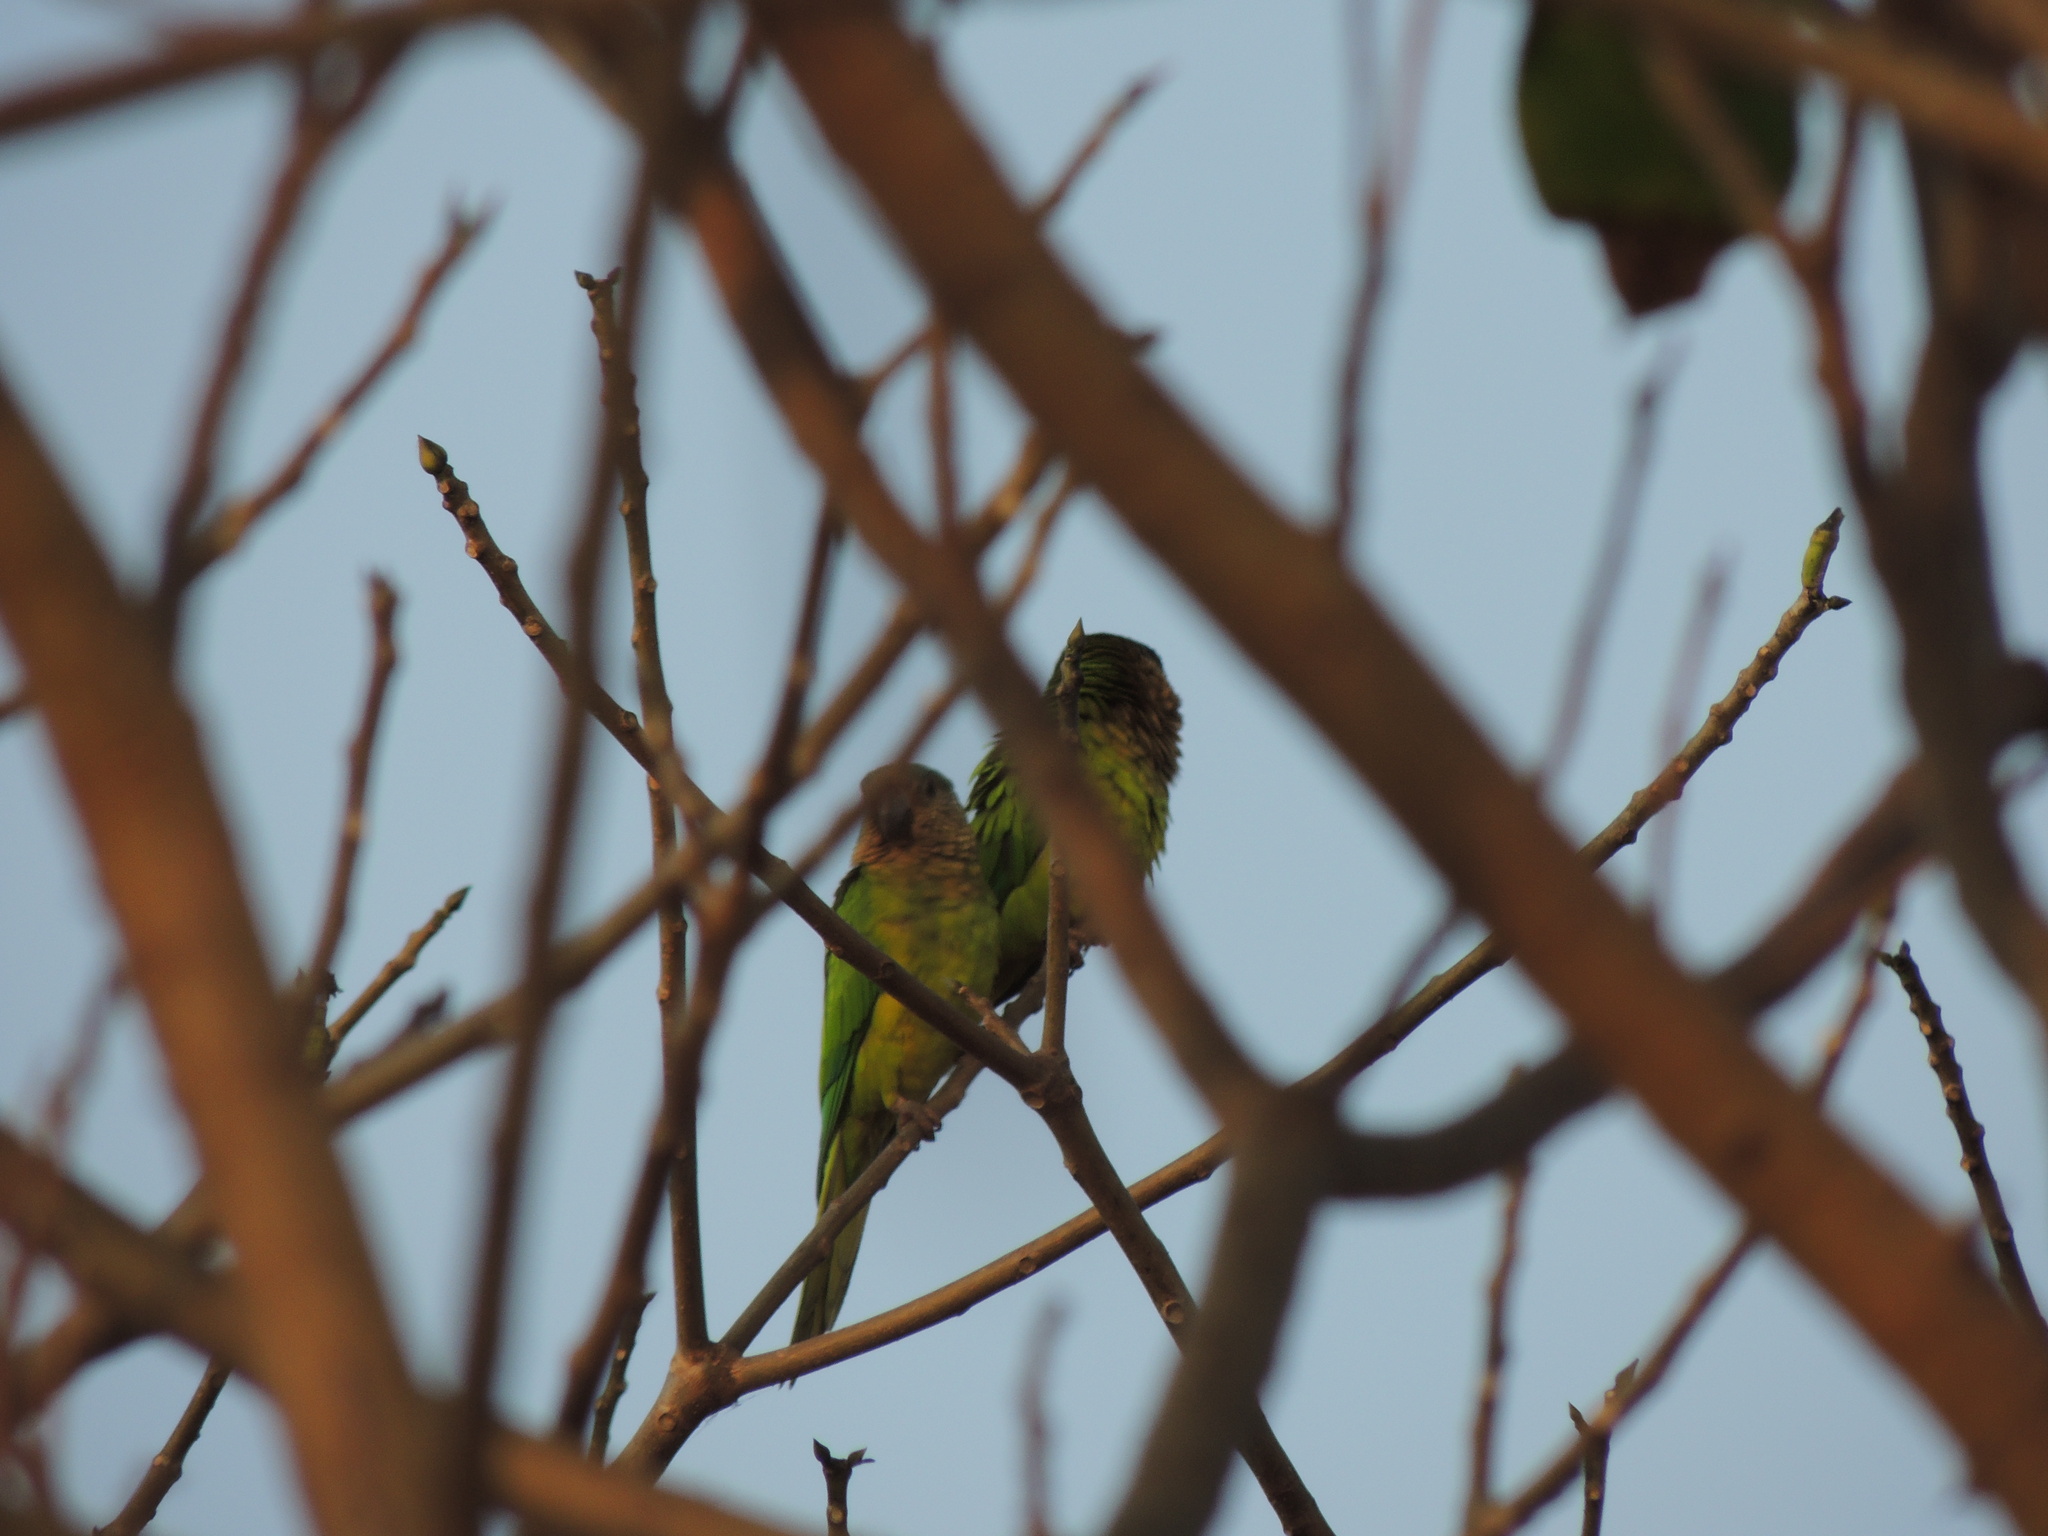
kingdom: Animalia
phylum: Chordata
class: Aves
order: Psittaciformes
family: Psittacidae
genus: Aratinga
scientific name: Aratinga pertinax
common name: Brown-throated parakeet
